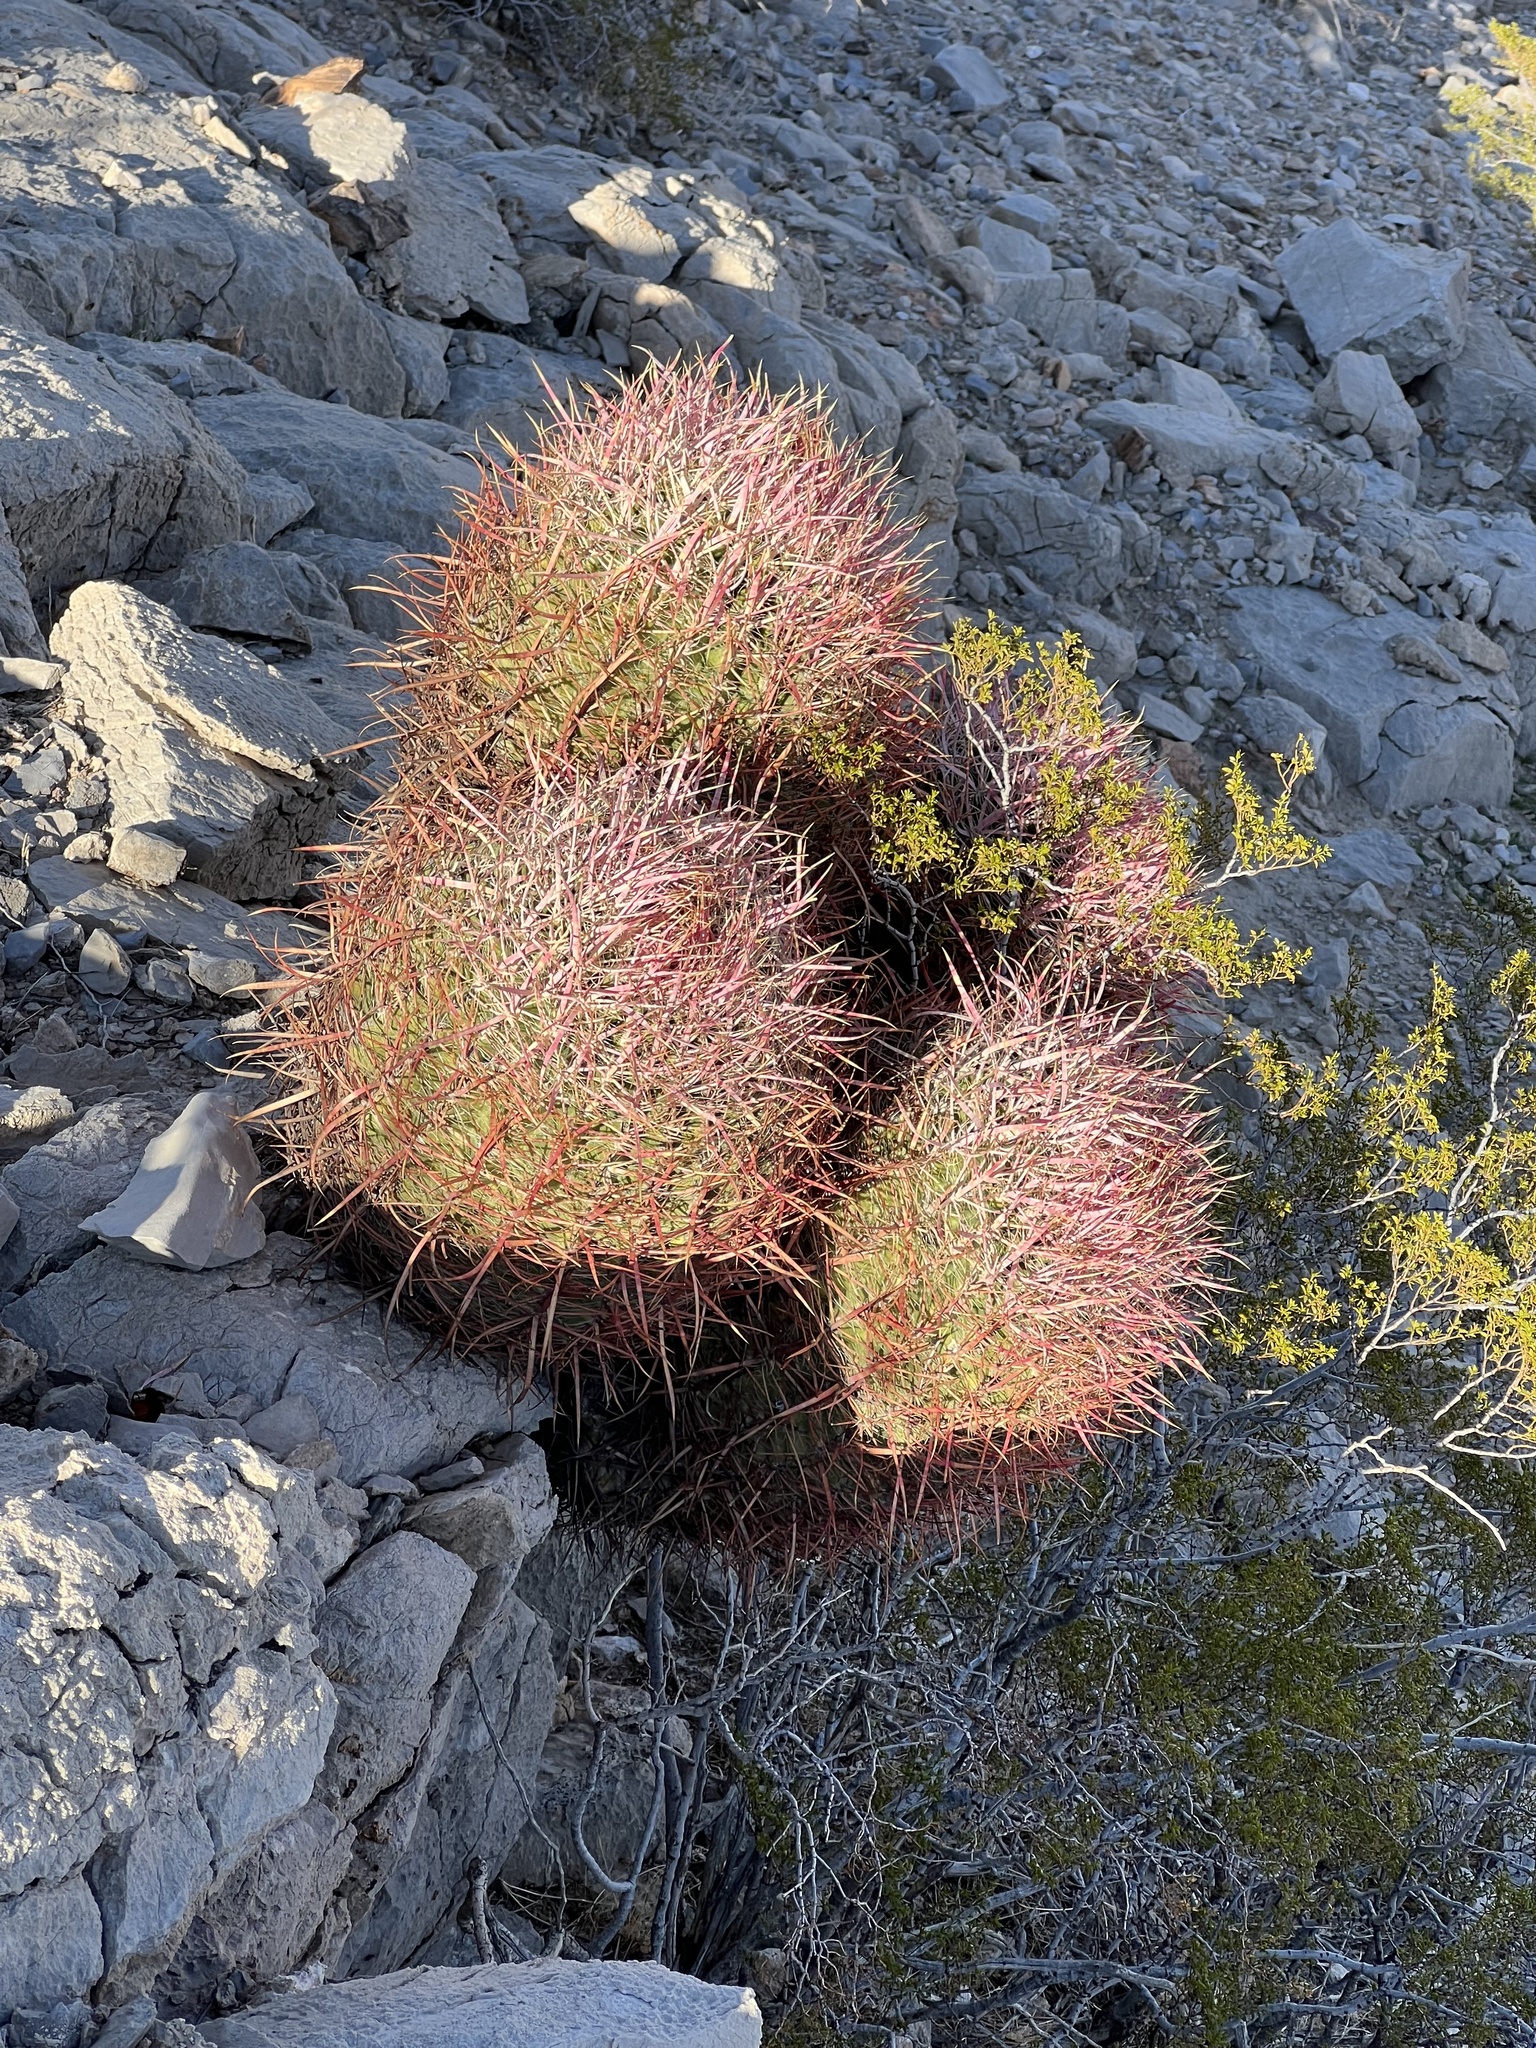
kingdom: Plantae
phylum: Tracheophyta
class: Magnoliopsida
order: Caryophyllales
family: Cactaceae
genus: Ferocactus
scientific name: Ferocactus cylindraceus
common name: California barrel cactus
